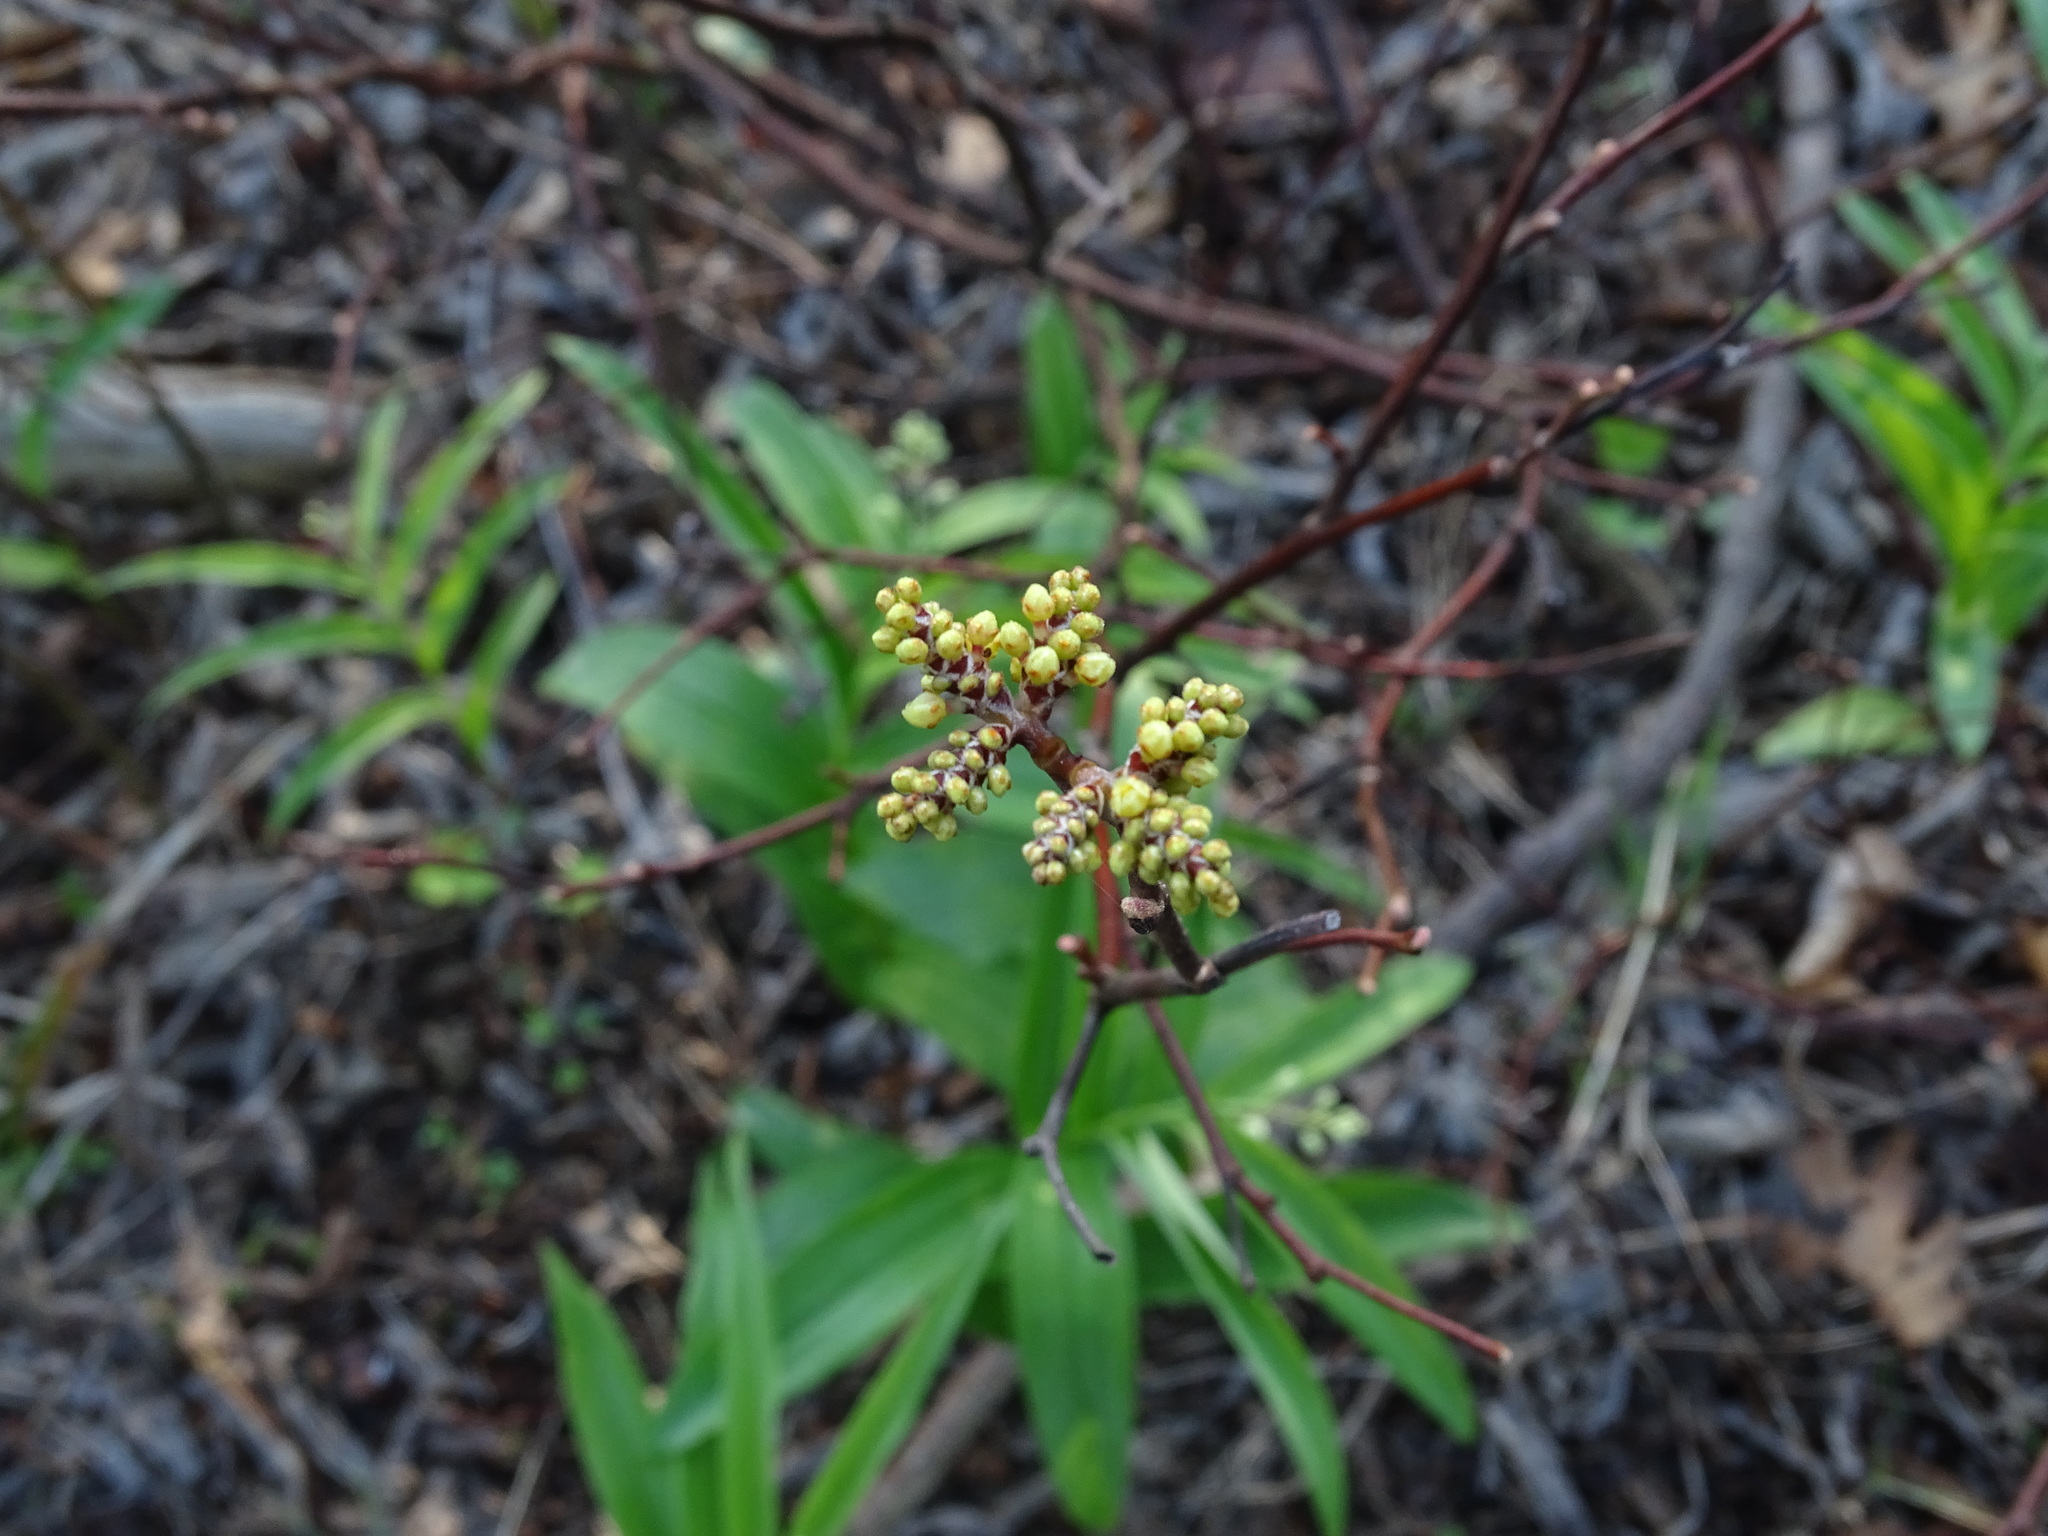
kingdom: Plantae
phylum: Tracheophyta
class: Magnoliopsida
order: Sapindales
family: Anacardiaceae
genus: Rhus
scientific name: Rhus aromatica
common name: Aromatic sumac
